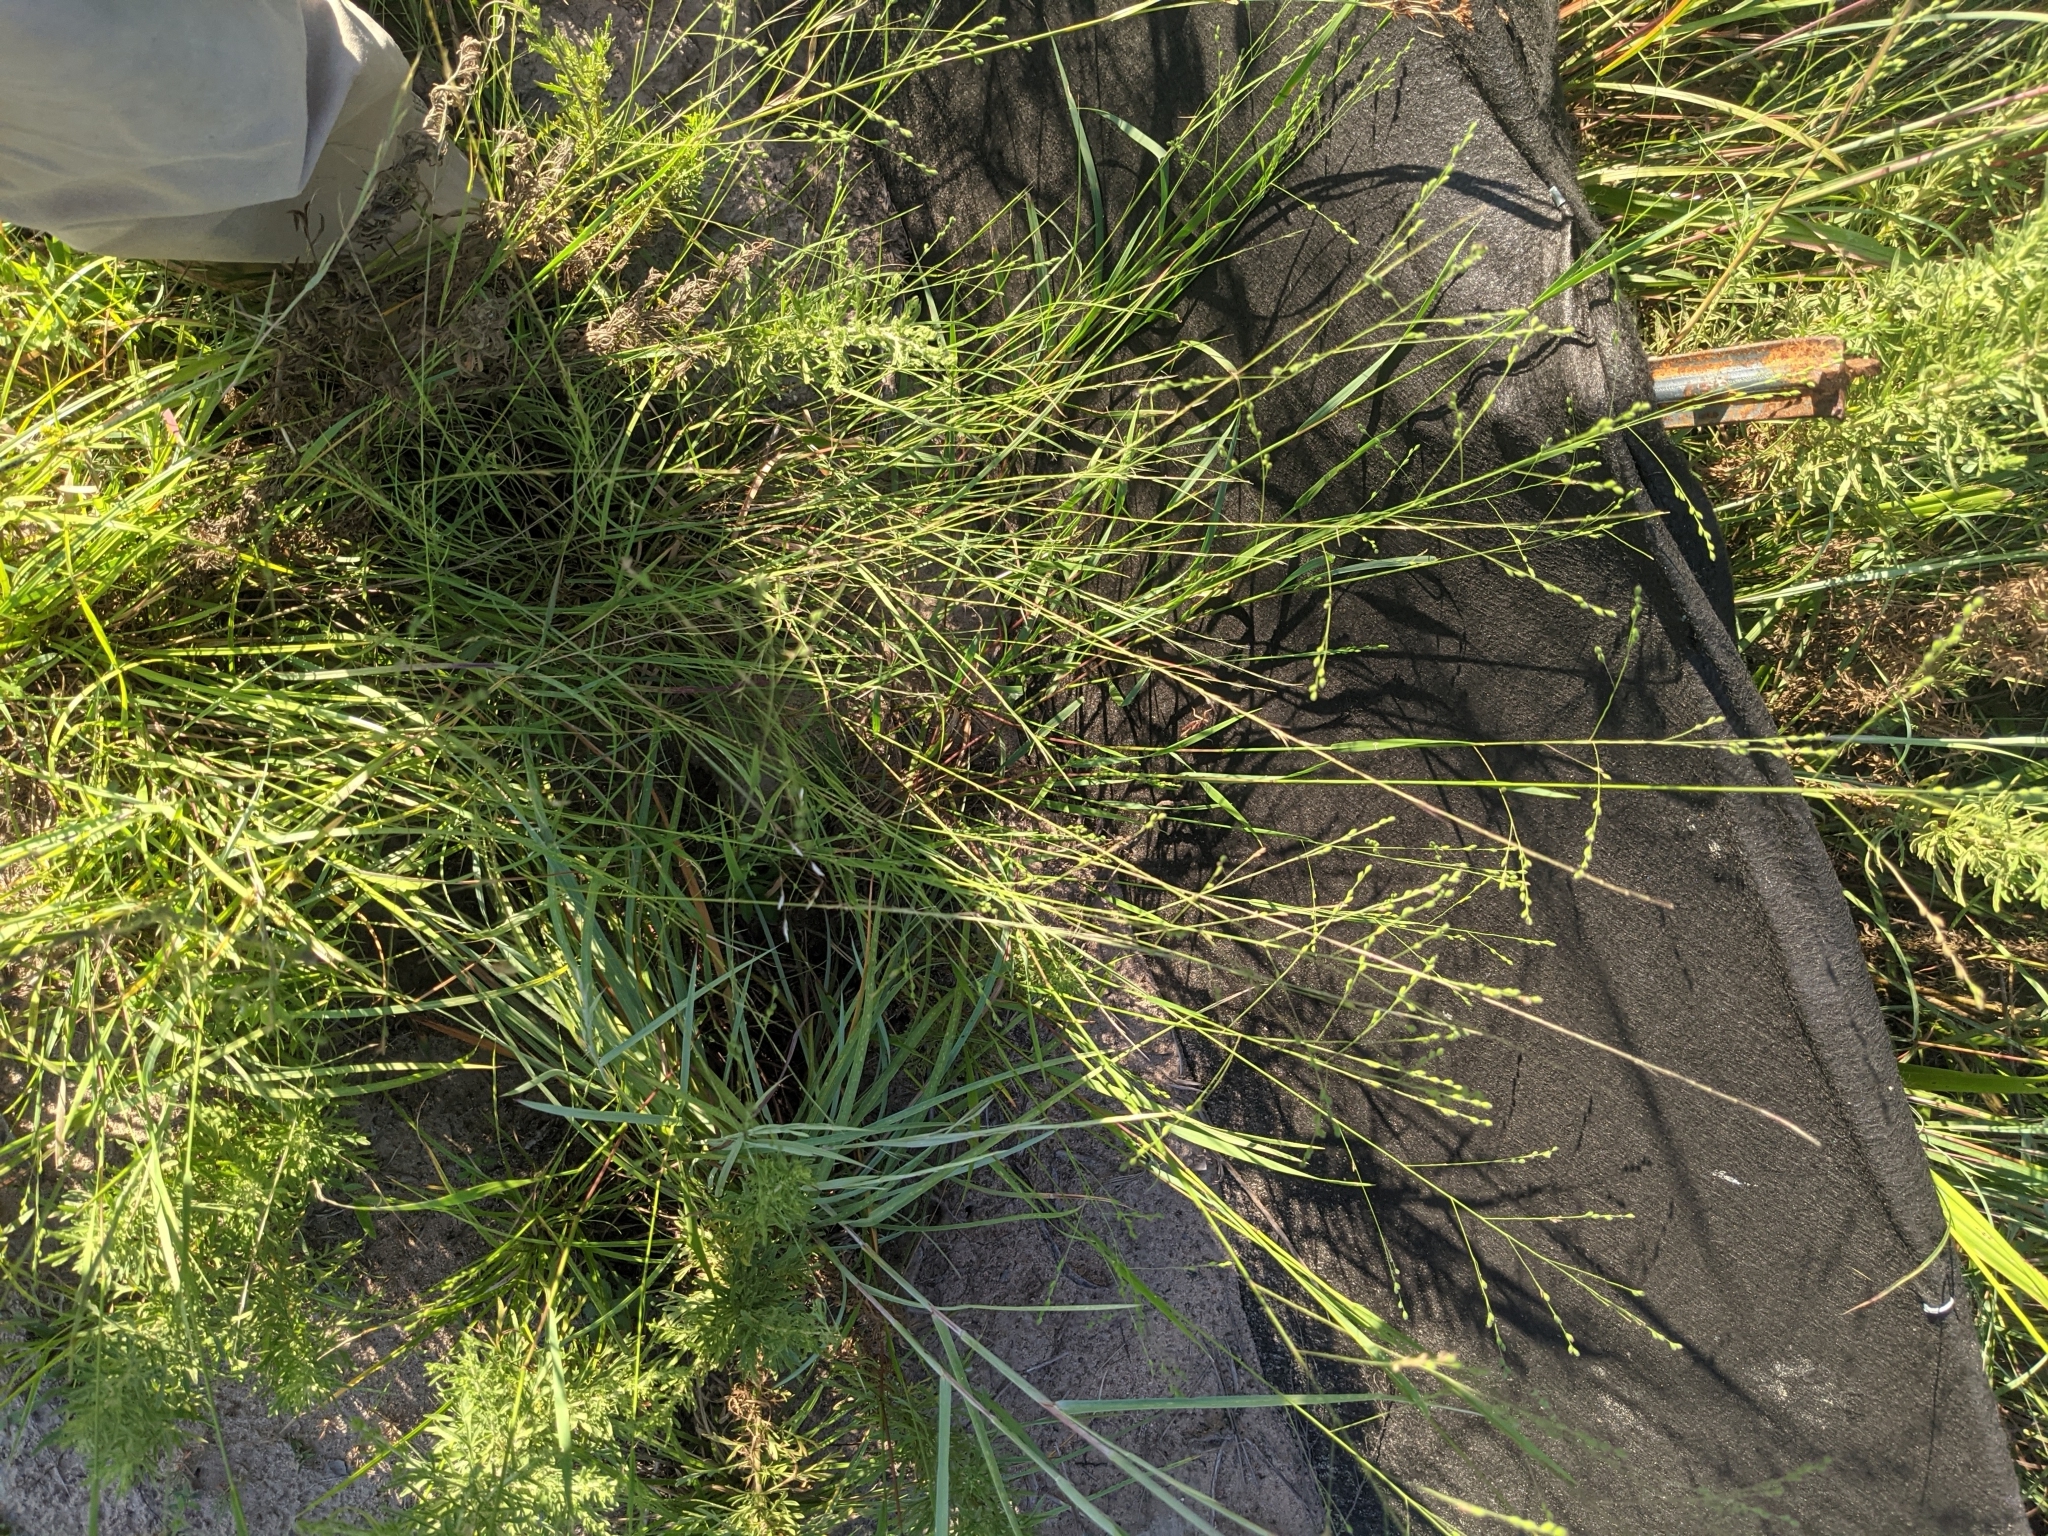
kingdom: Plantae
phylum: Tracheophyta
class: Liliopsida
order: Poales
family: Poaceae
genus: Kellochloa
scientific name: Kellochloa brachyantha
